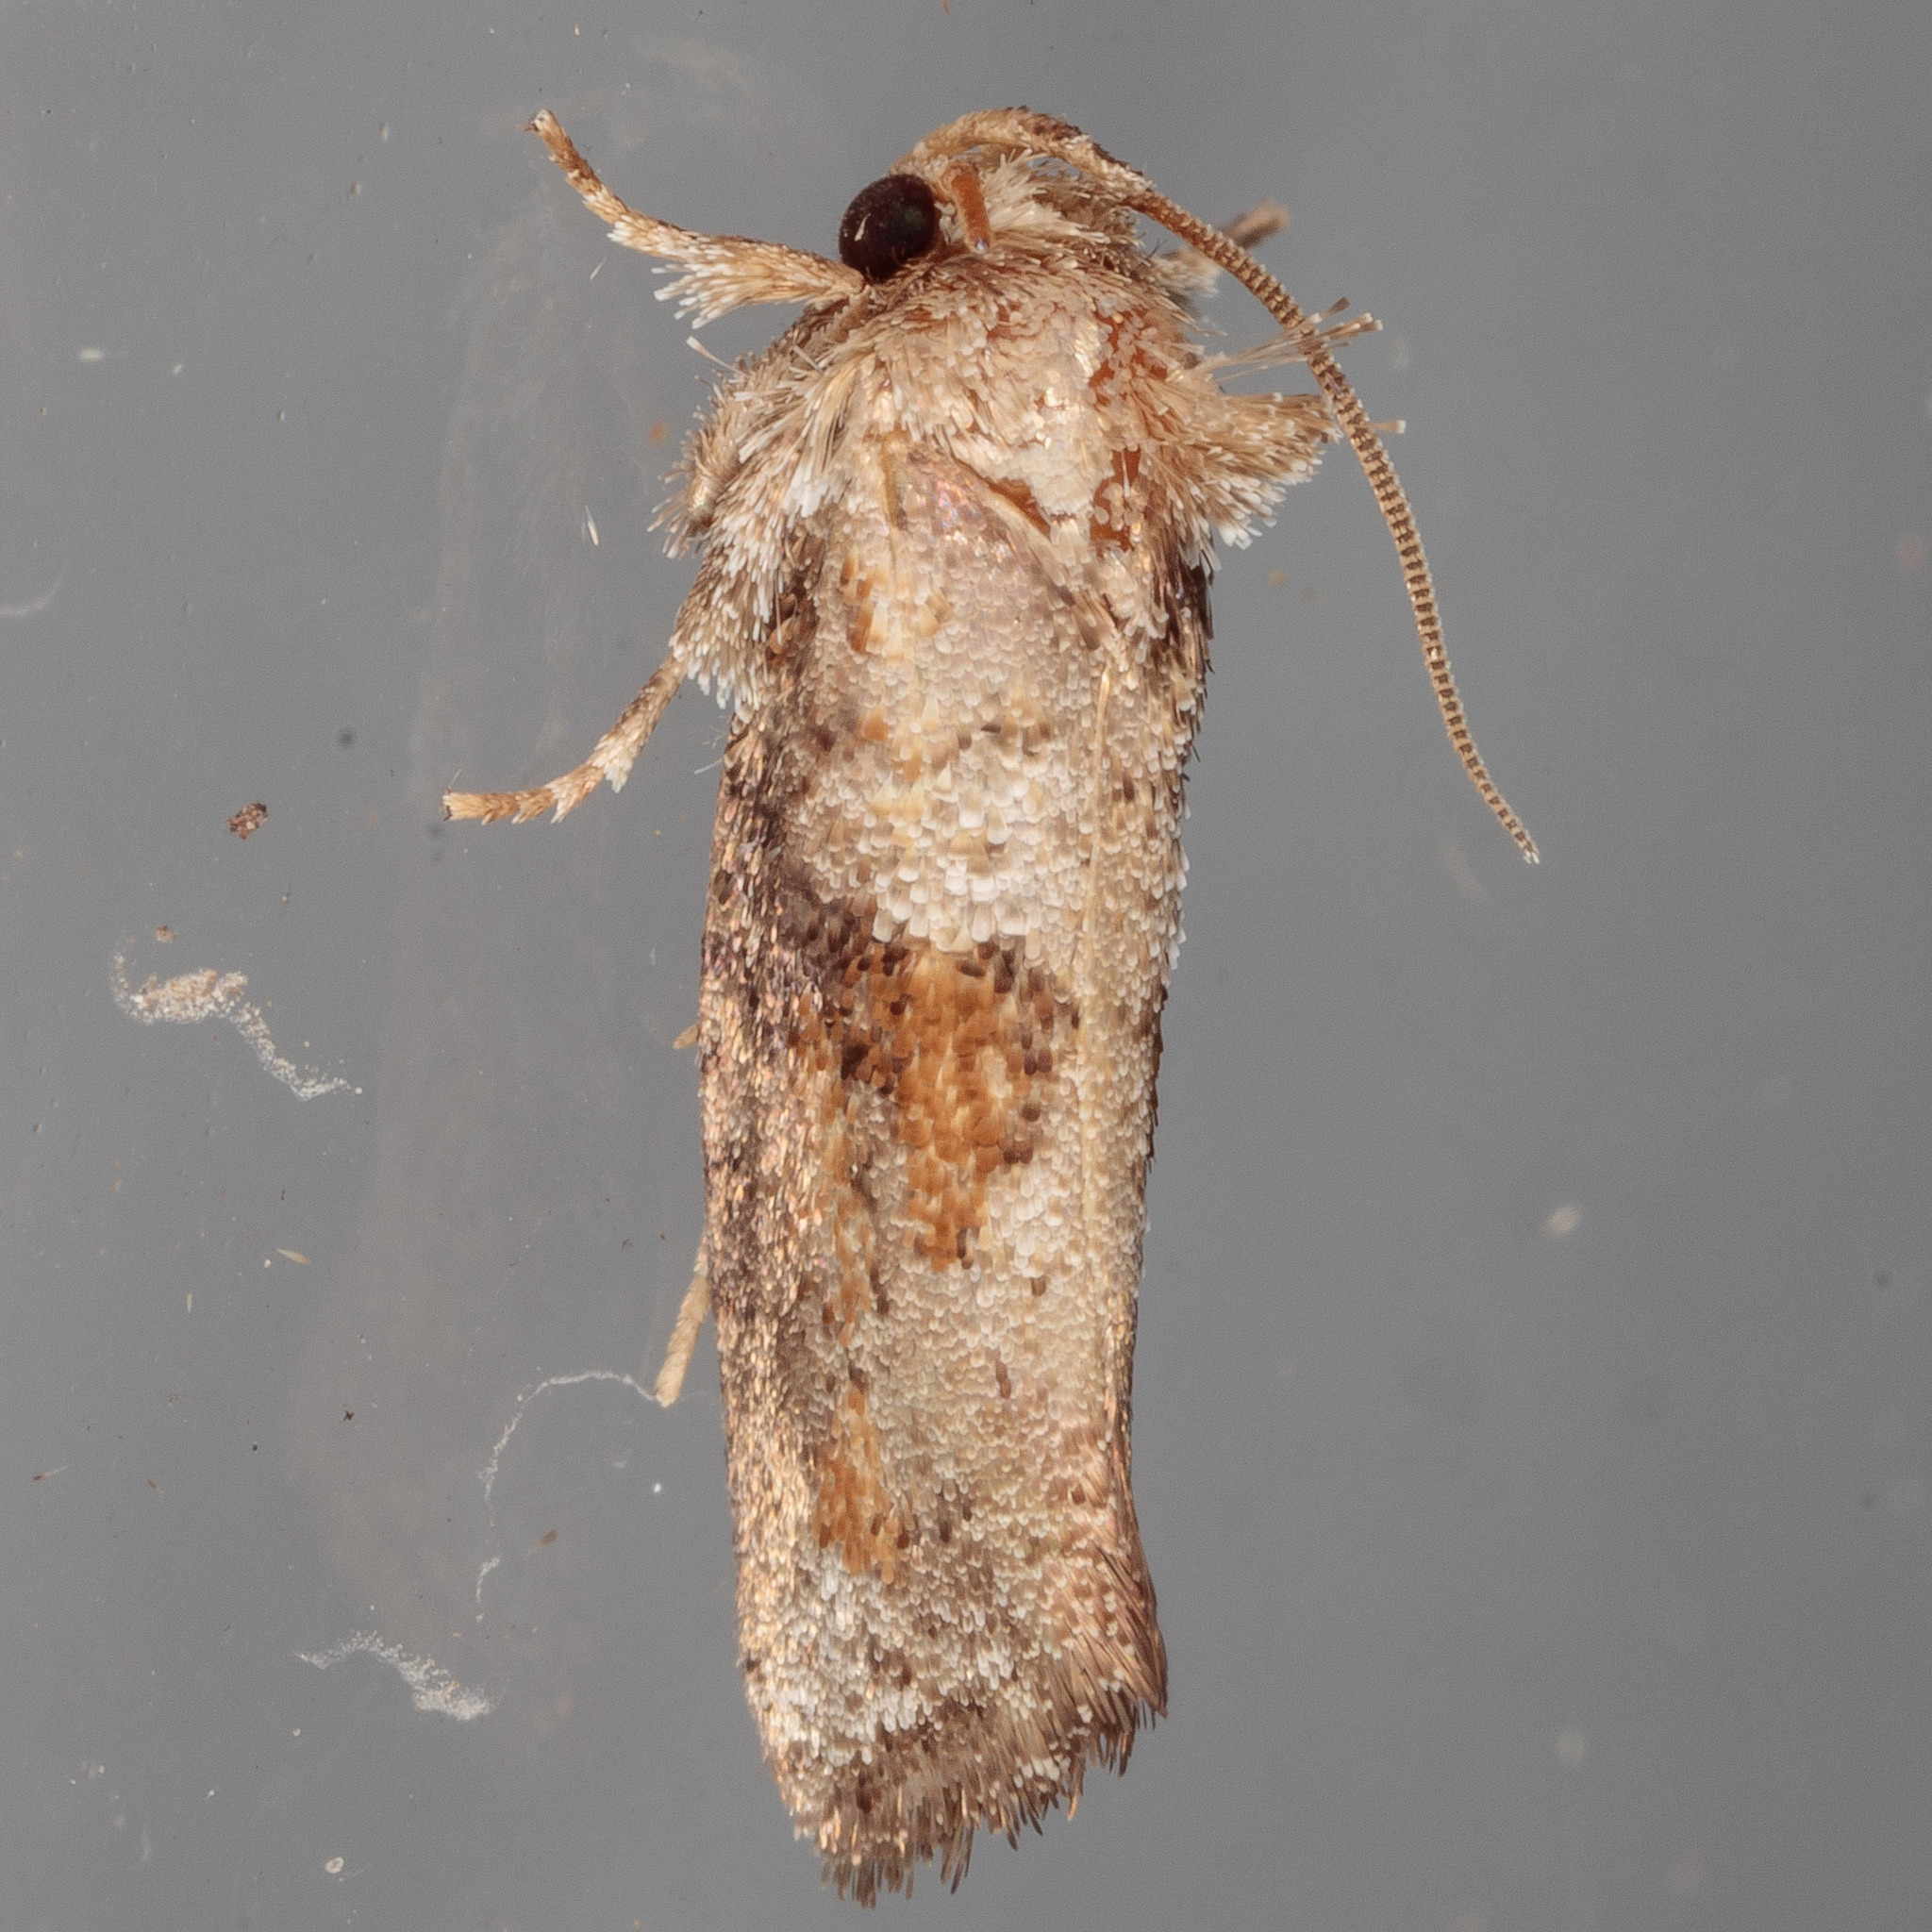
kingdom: Animalia
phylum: Arthropoda
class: Insecta
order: Lepidoptera
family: Tineidae
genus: Acrolophus
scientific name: Acrolophus piger
